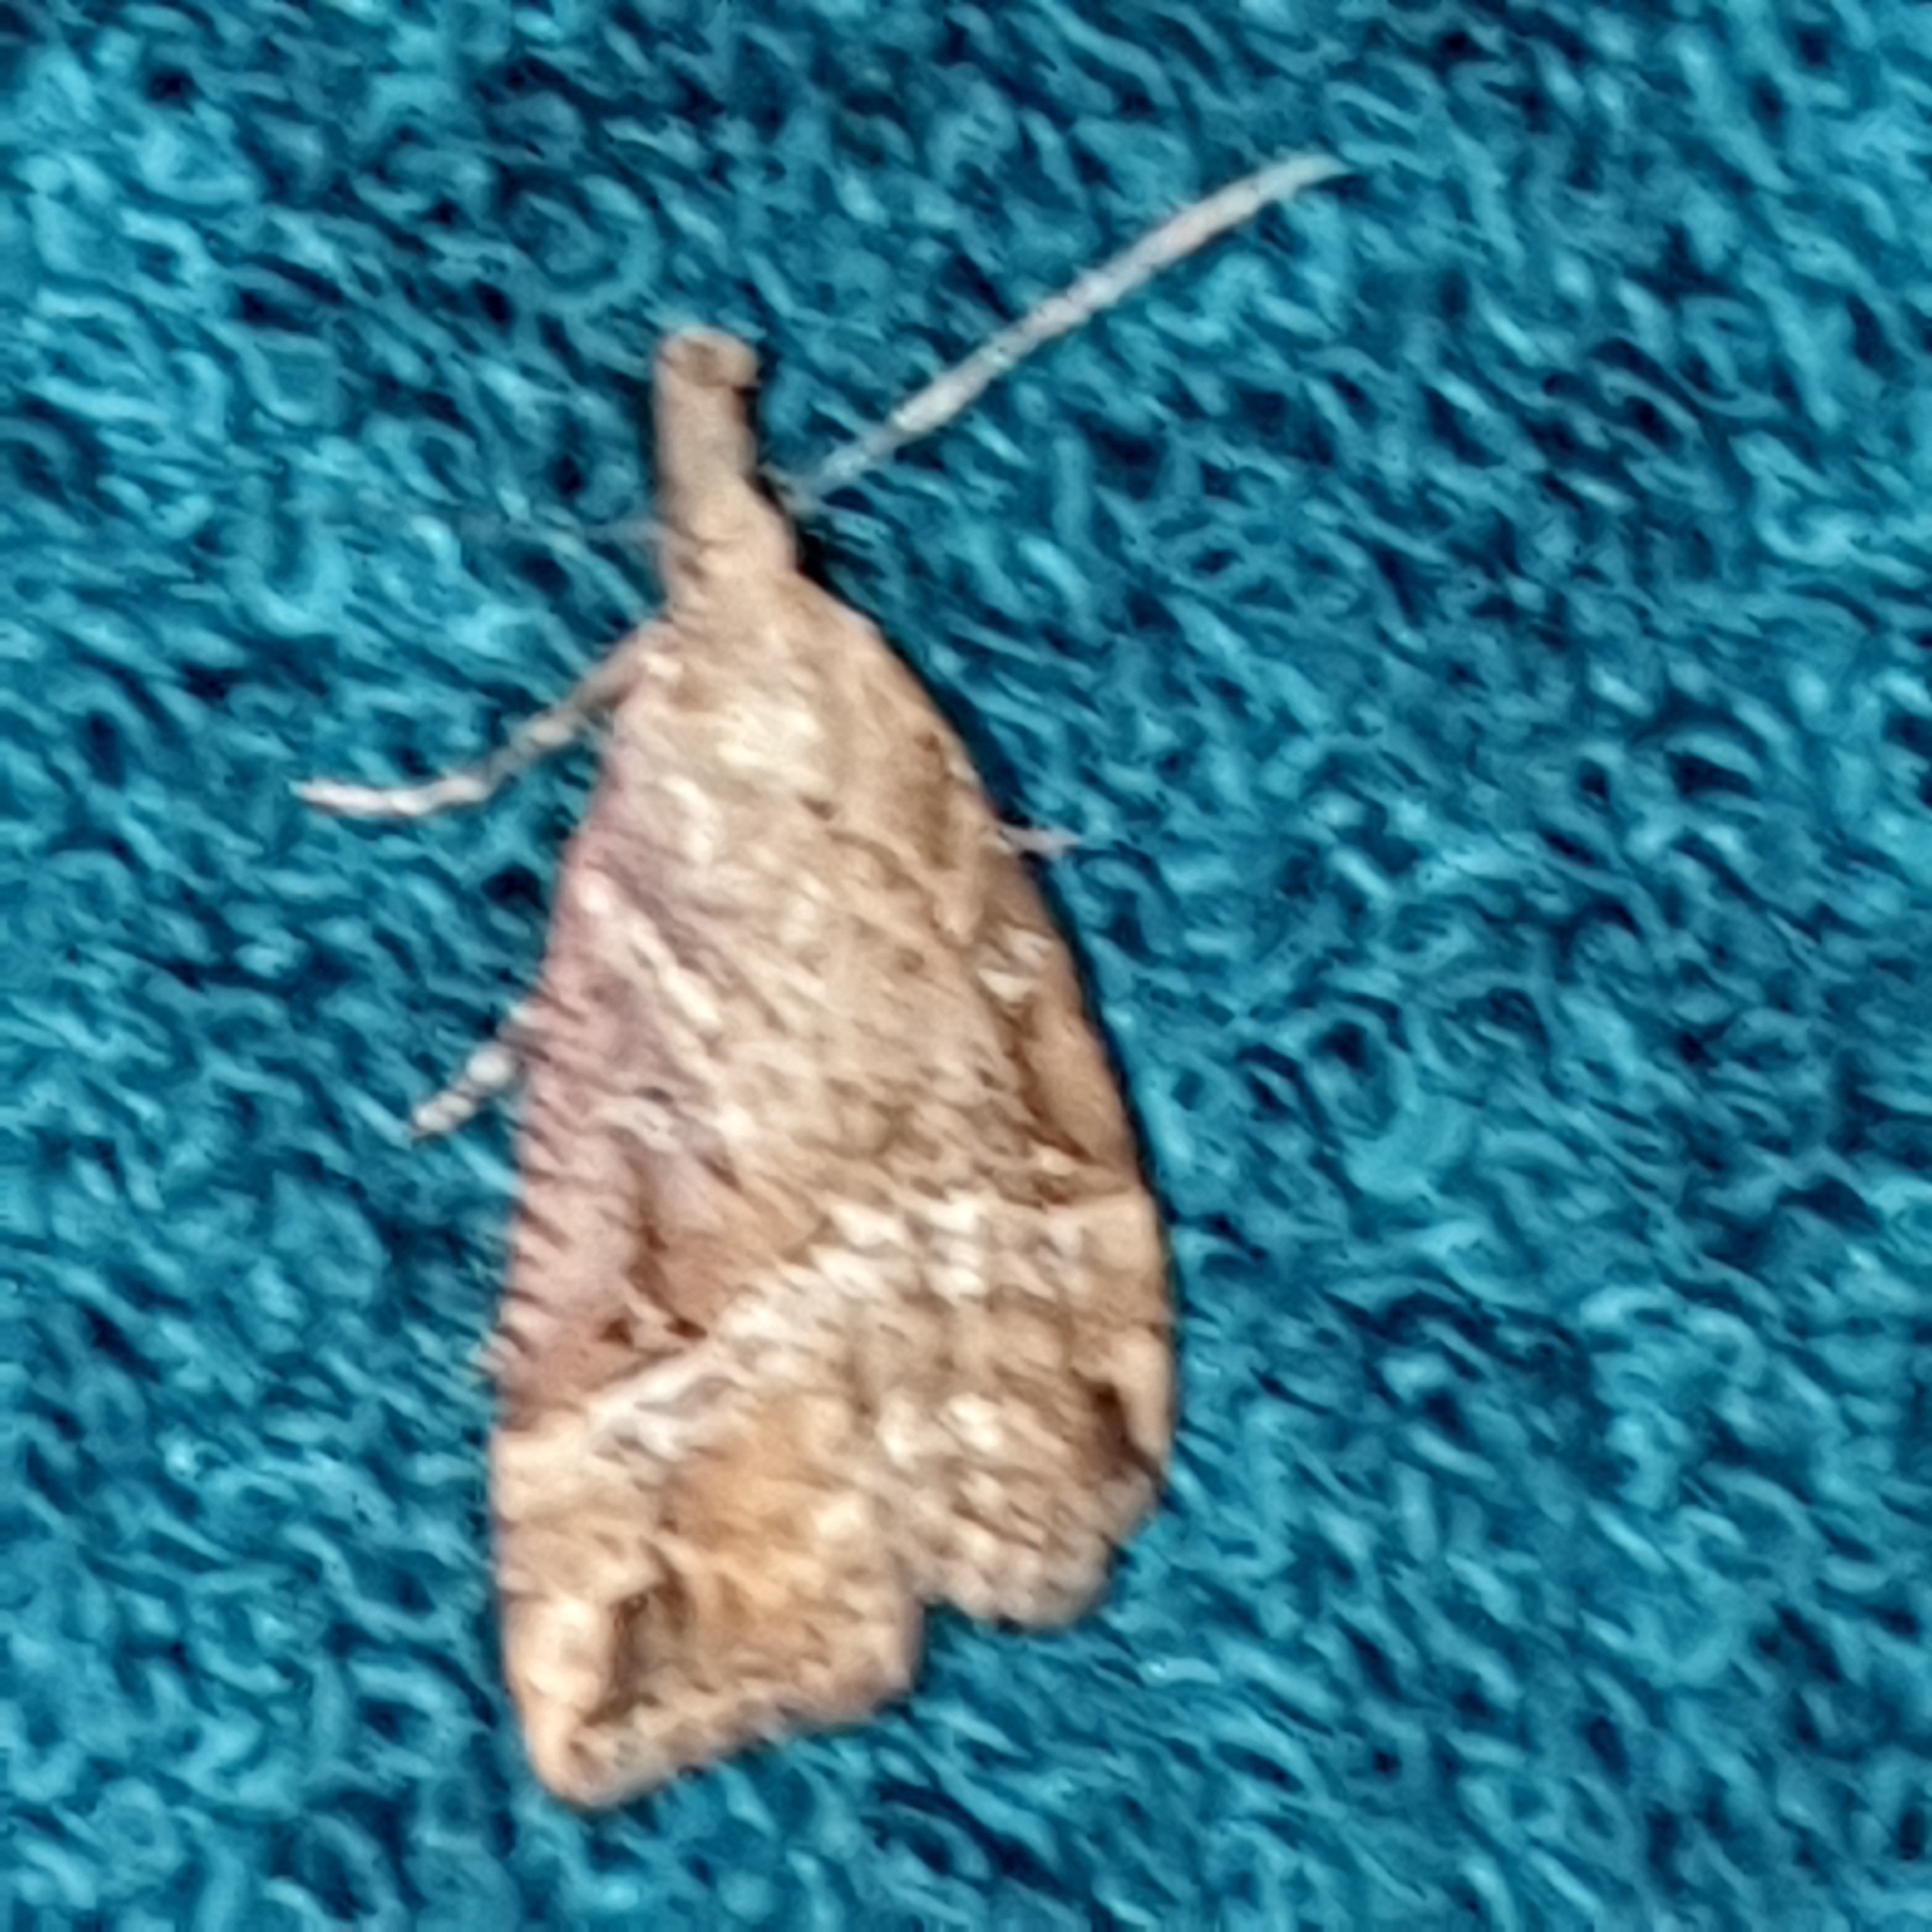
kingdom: Animalia
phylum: Arthropoda
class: Insecta
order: Lepidoptera
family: Erebidae
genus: Hypena
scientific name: Hypena rostralis
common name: Buttoned snout
